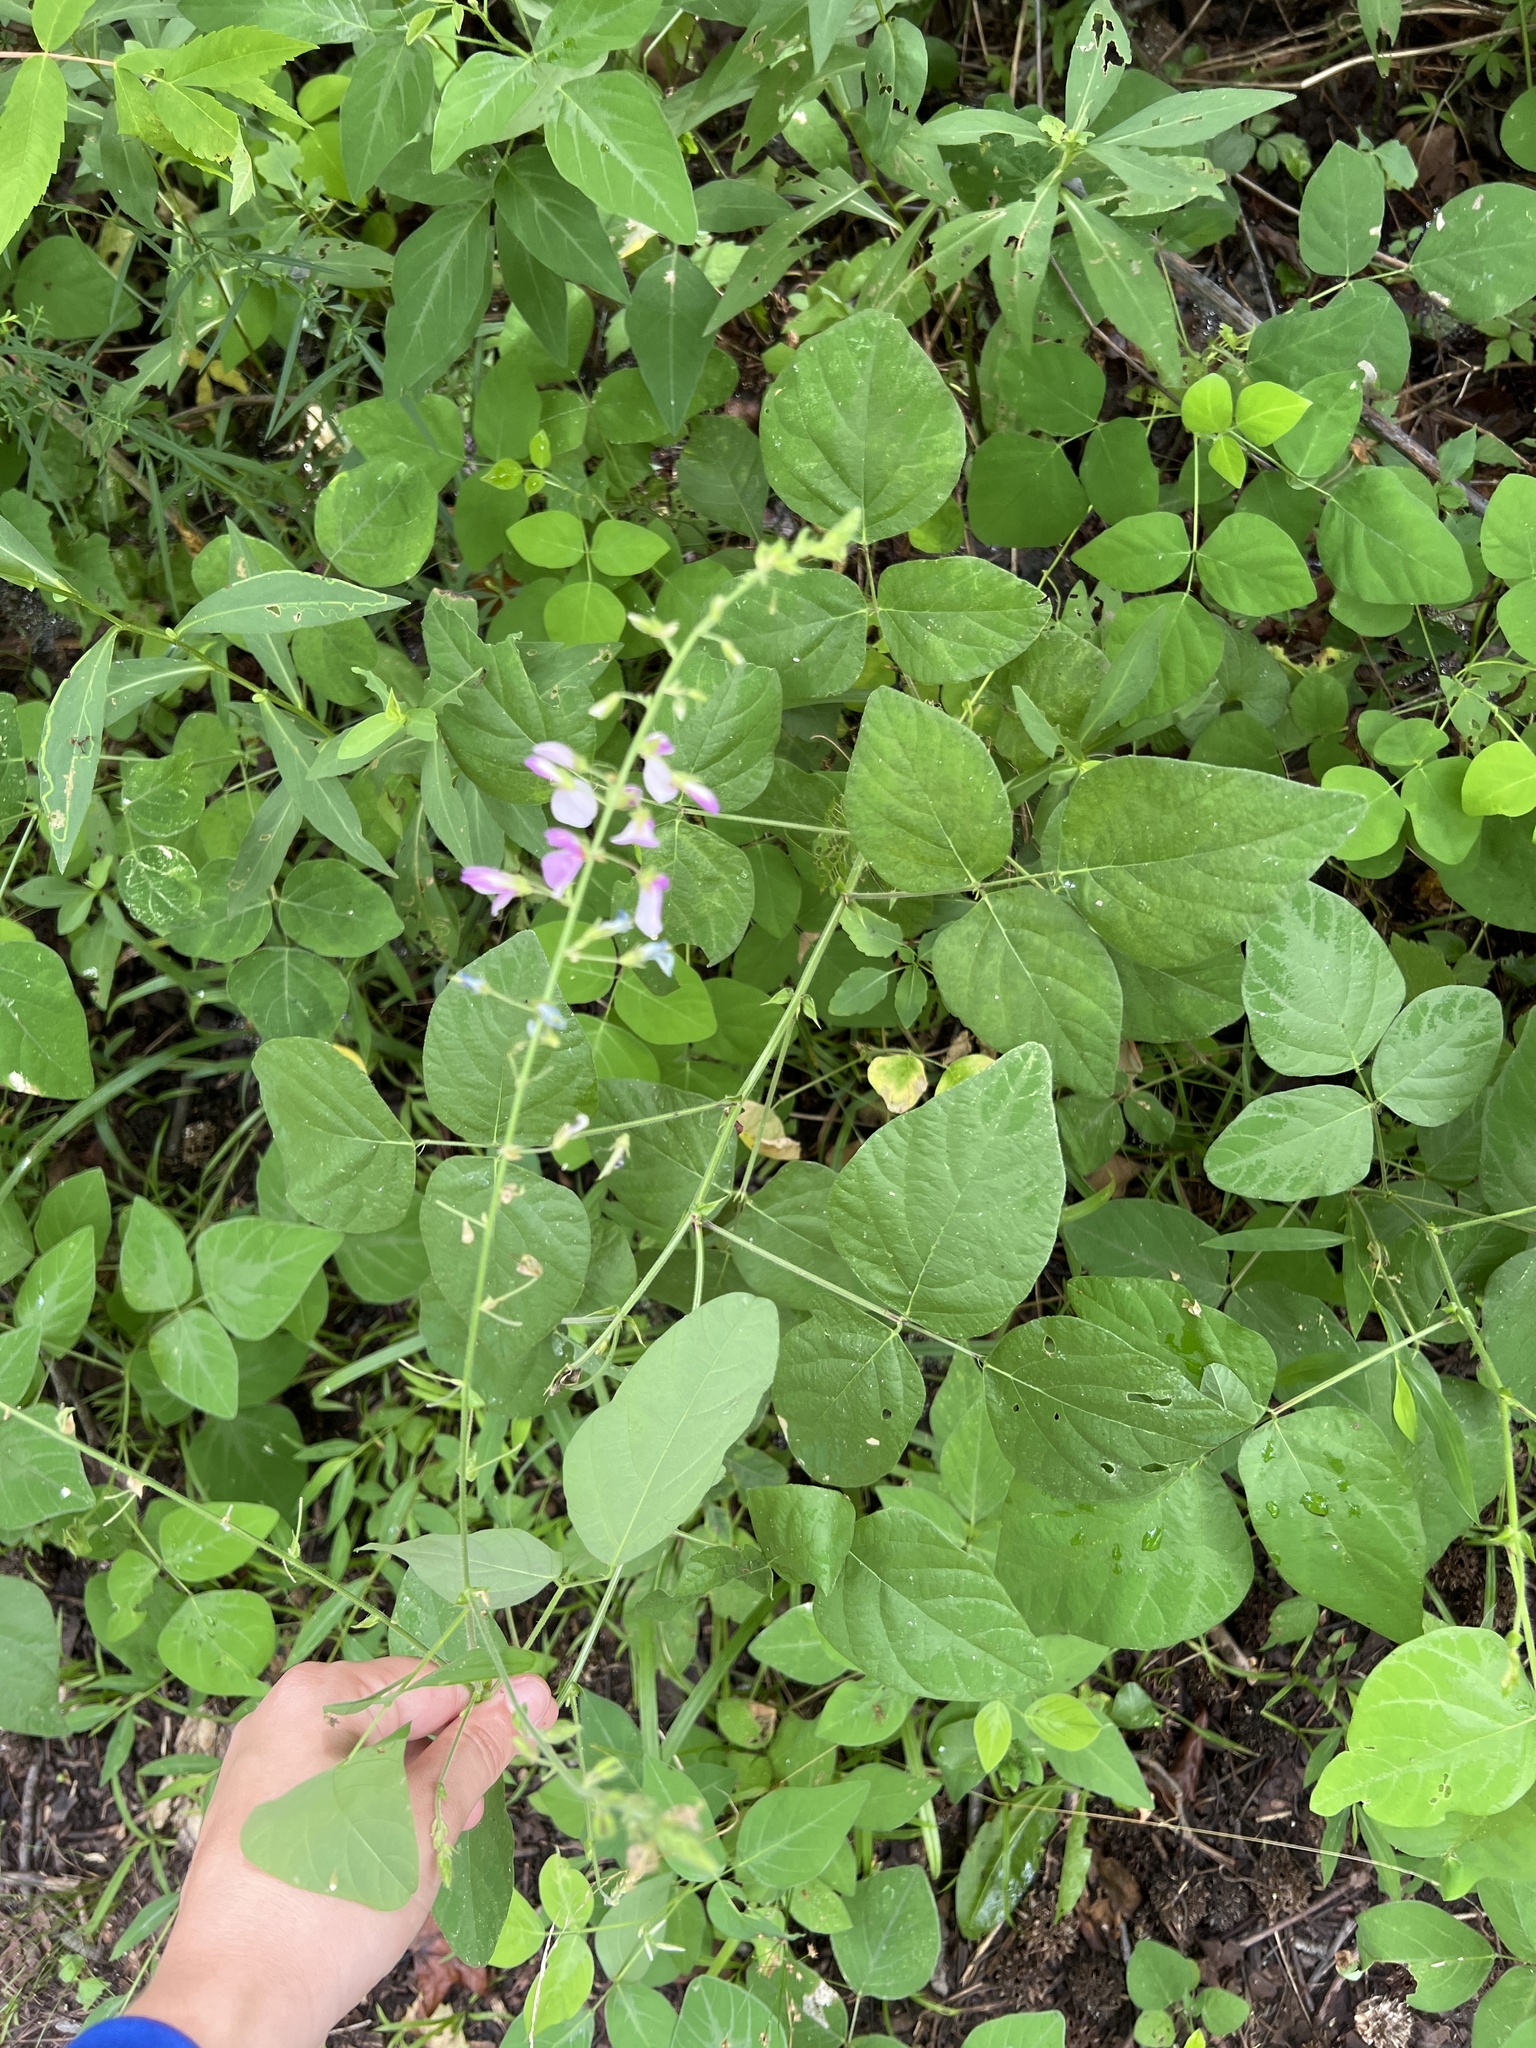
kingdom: Plantae
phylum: Tracheophyta
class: Magnoliopsida
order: Fabales
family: Fabaceae
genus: Desmodium
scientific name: Desmodium canescens
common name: Hoary tick-clover
